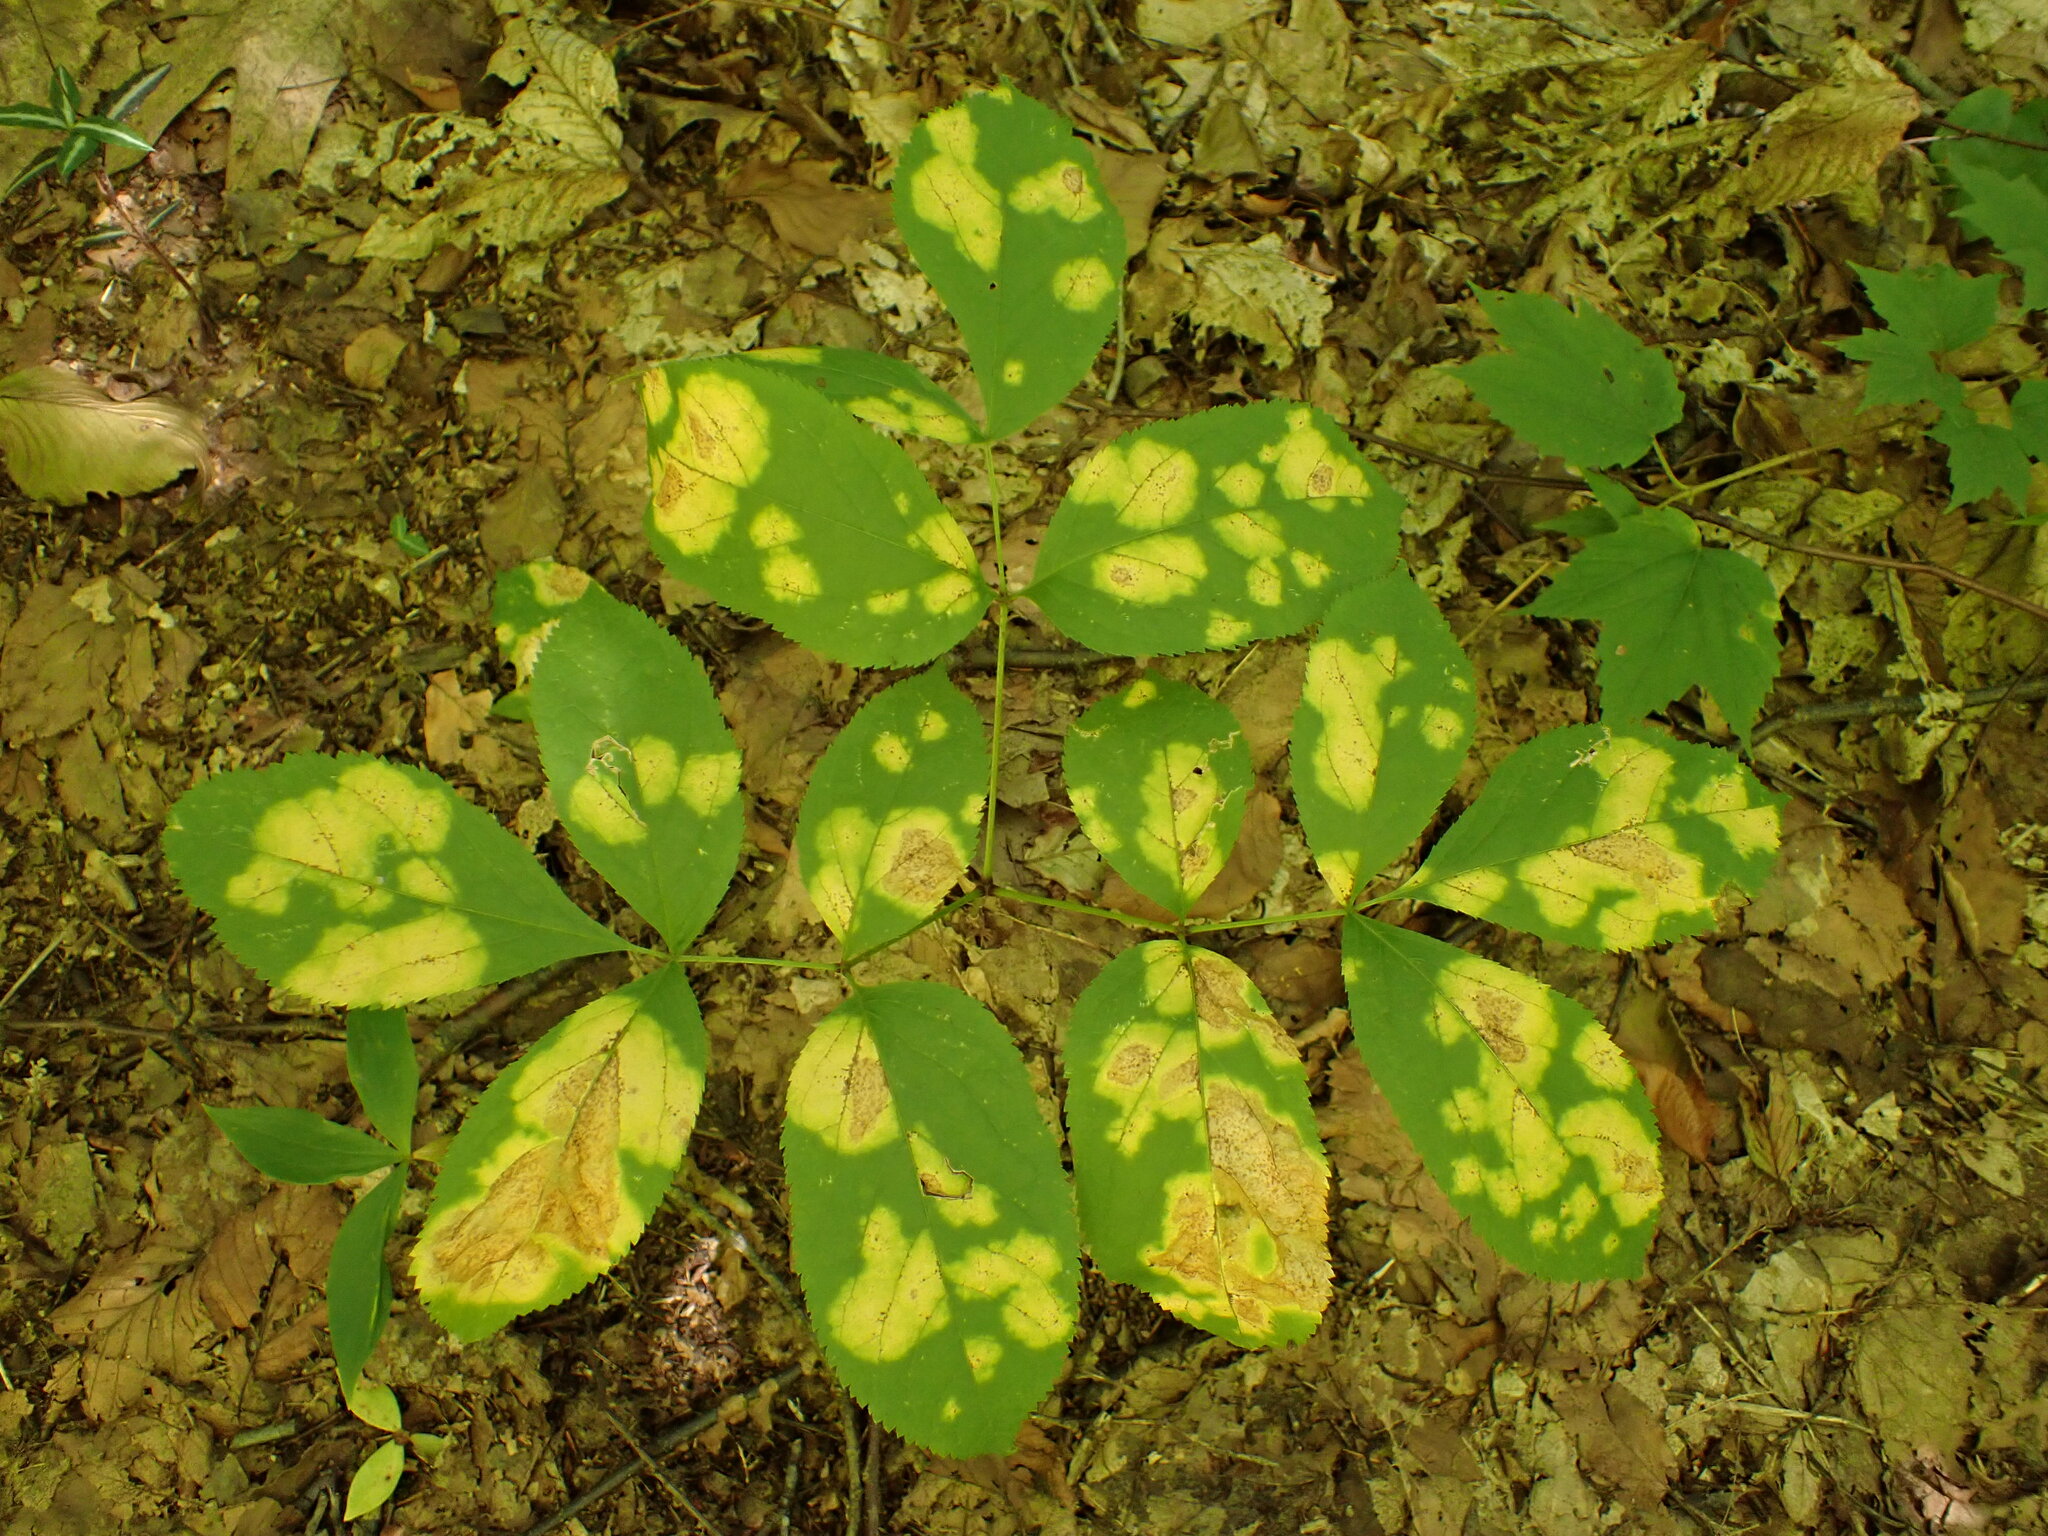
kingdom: Plantae
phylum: Tracheophyta
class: Magnoliopsida
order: Apiales
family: Araliaceae
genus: Aralia
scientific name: Aralia nudicaulis
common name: Wild sarsaparilla
